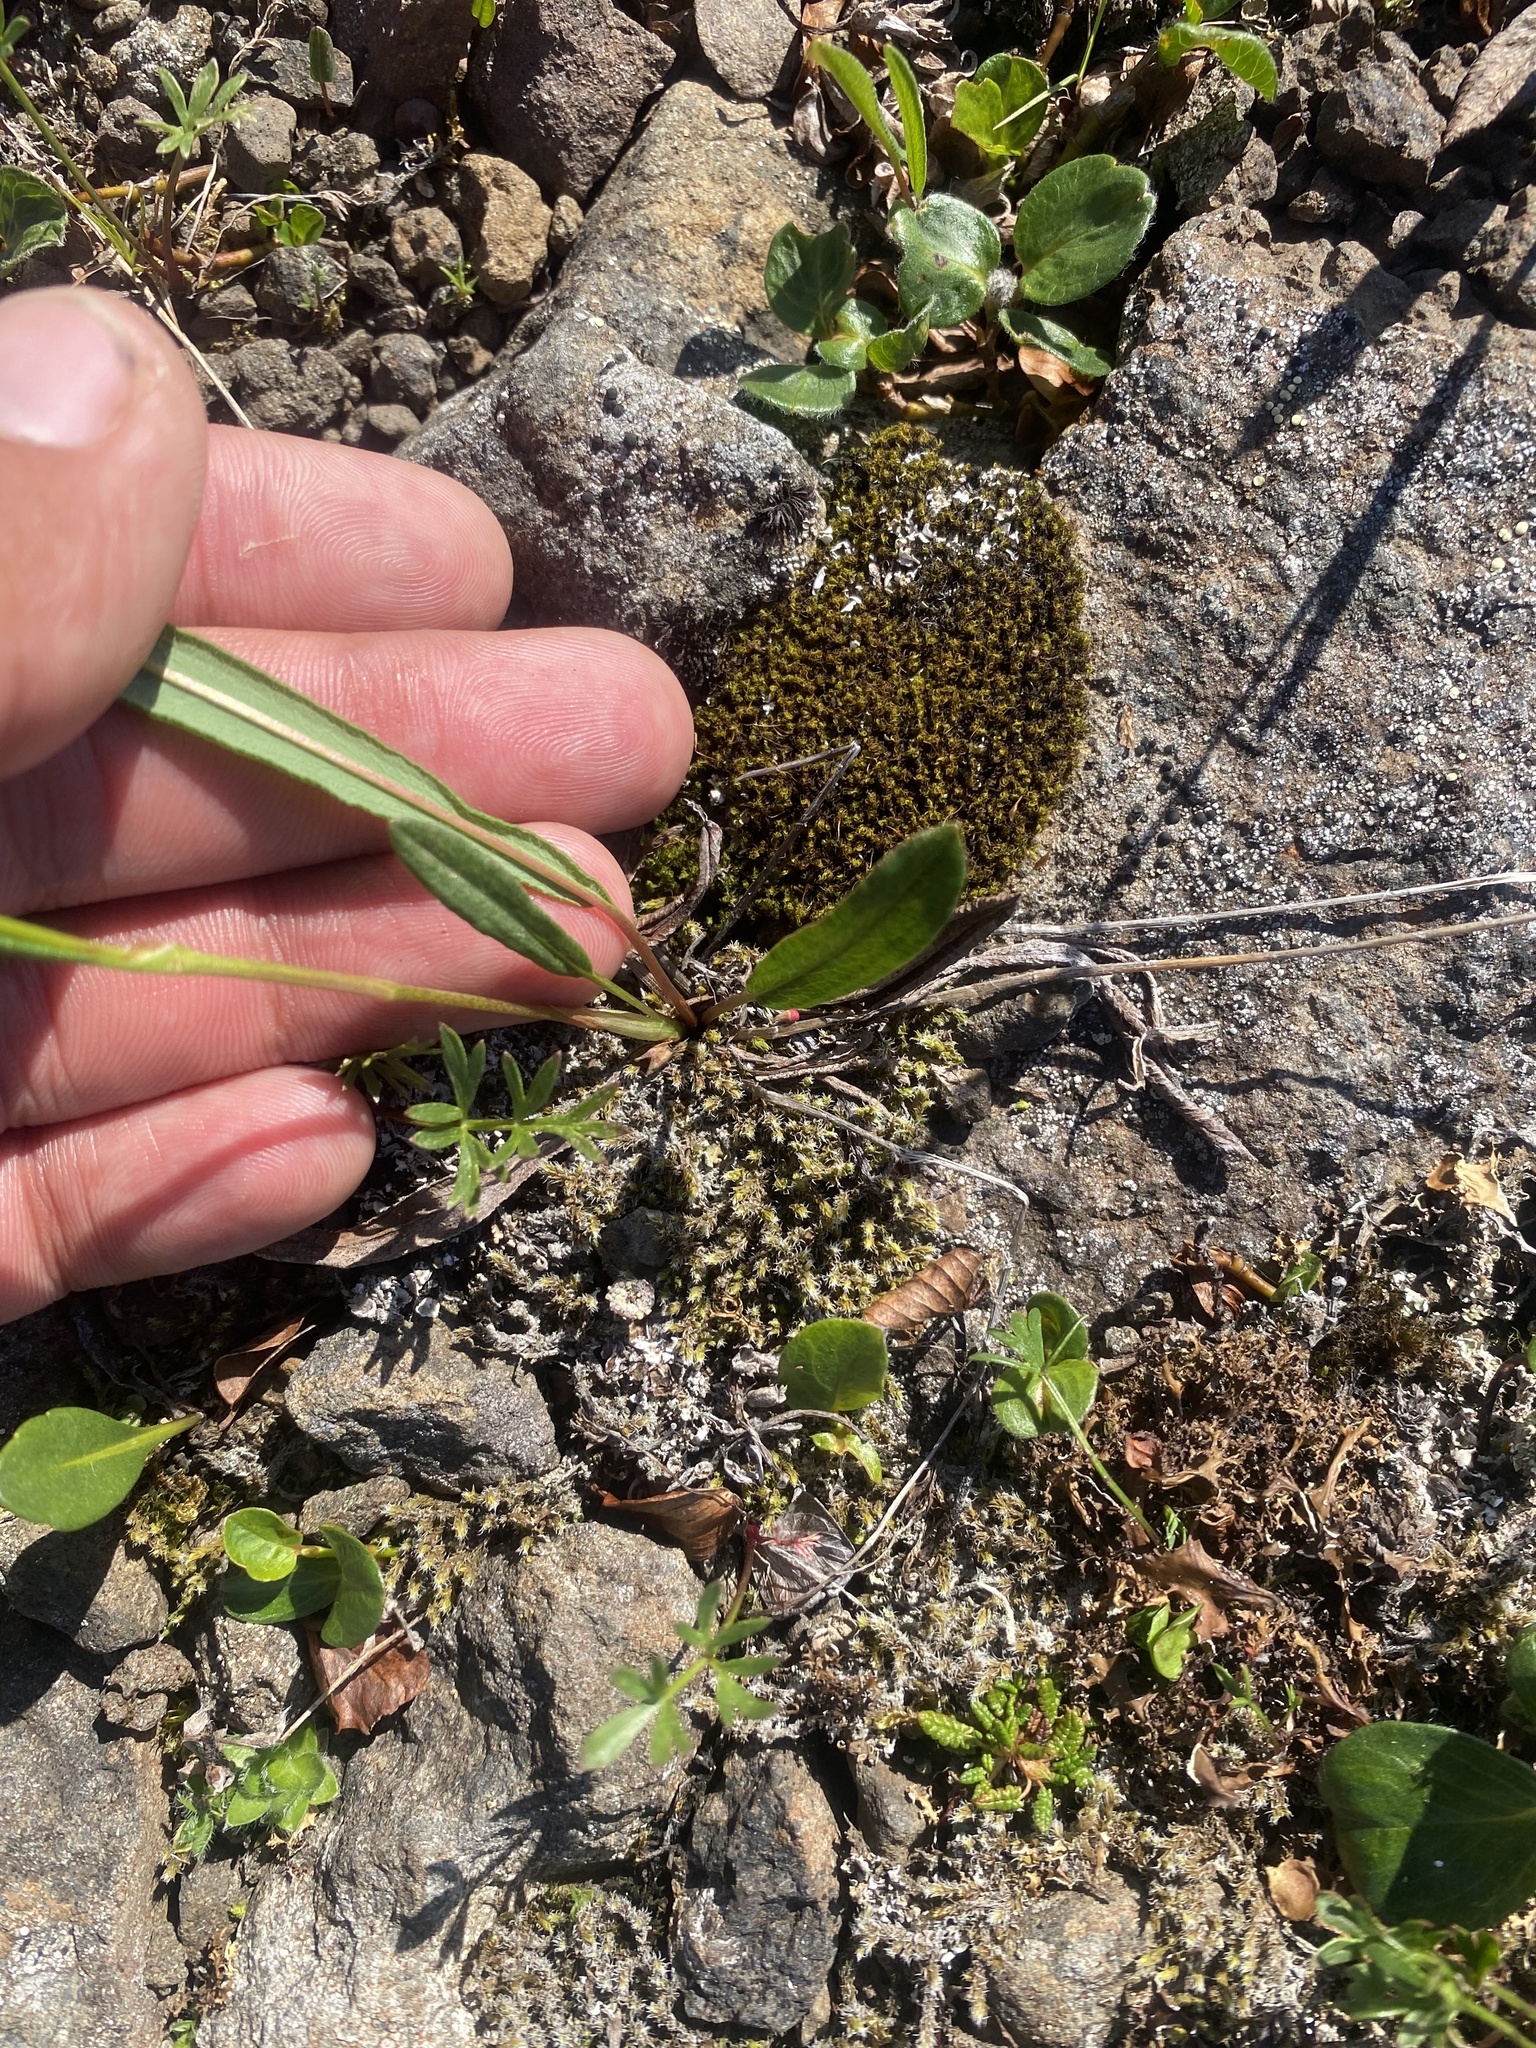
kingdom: Plantae
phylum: Tracheophyta
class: Magnoliopsida
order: Caryophyllales
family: Polygonaceae
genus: Bistorta
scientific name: Bistorta vivipara
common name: Alpine bistort
